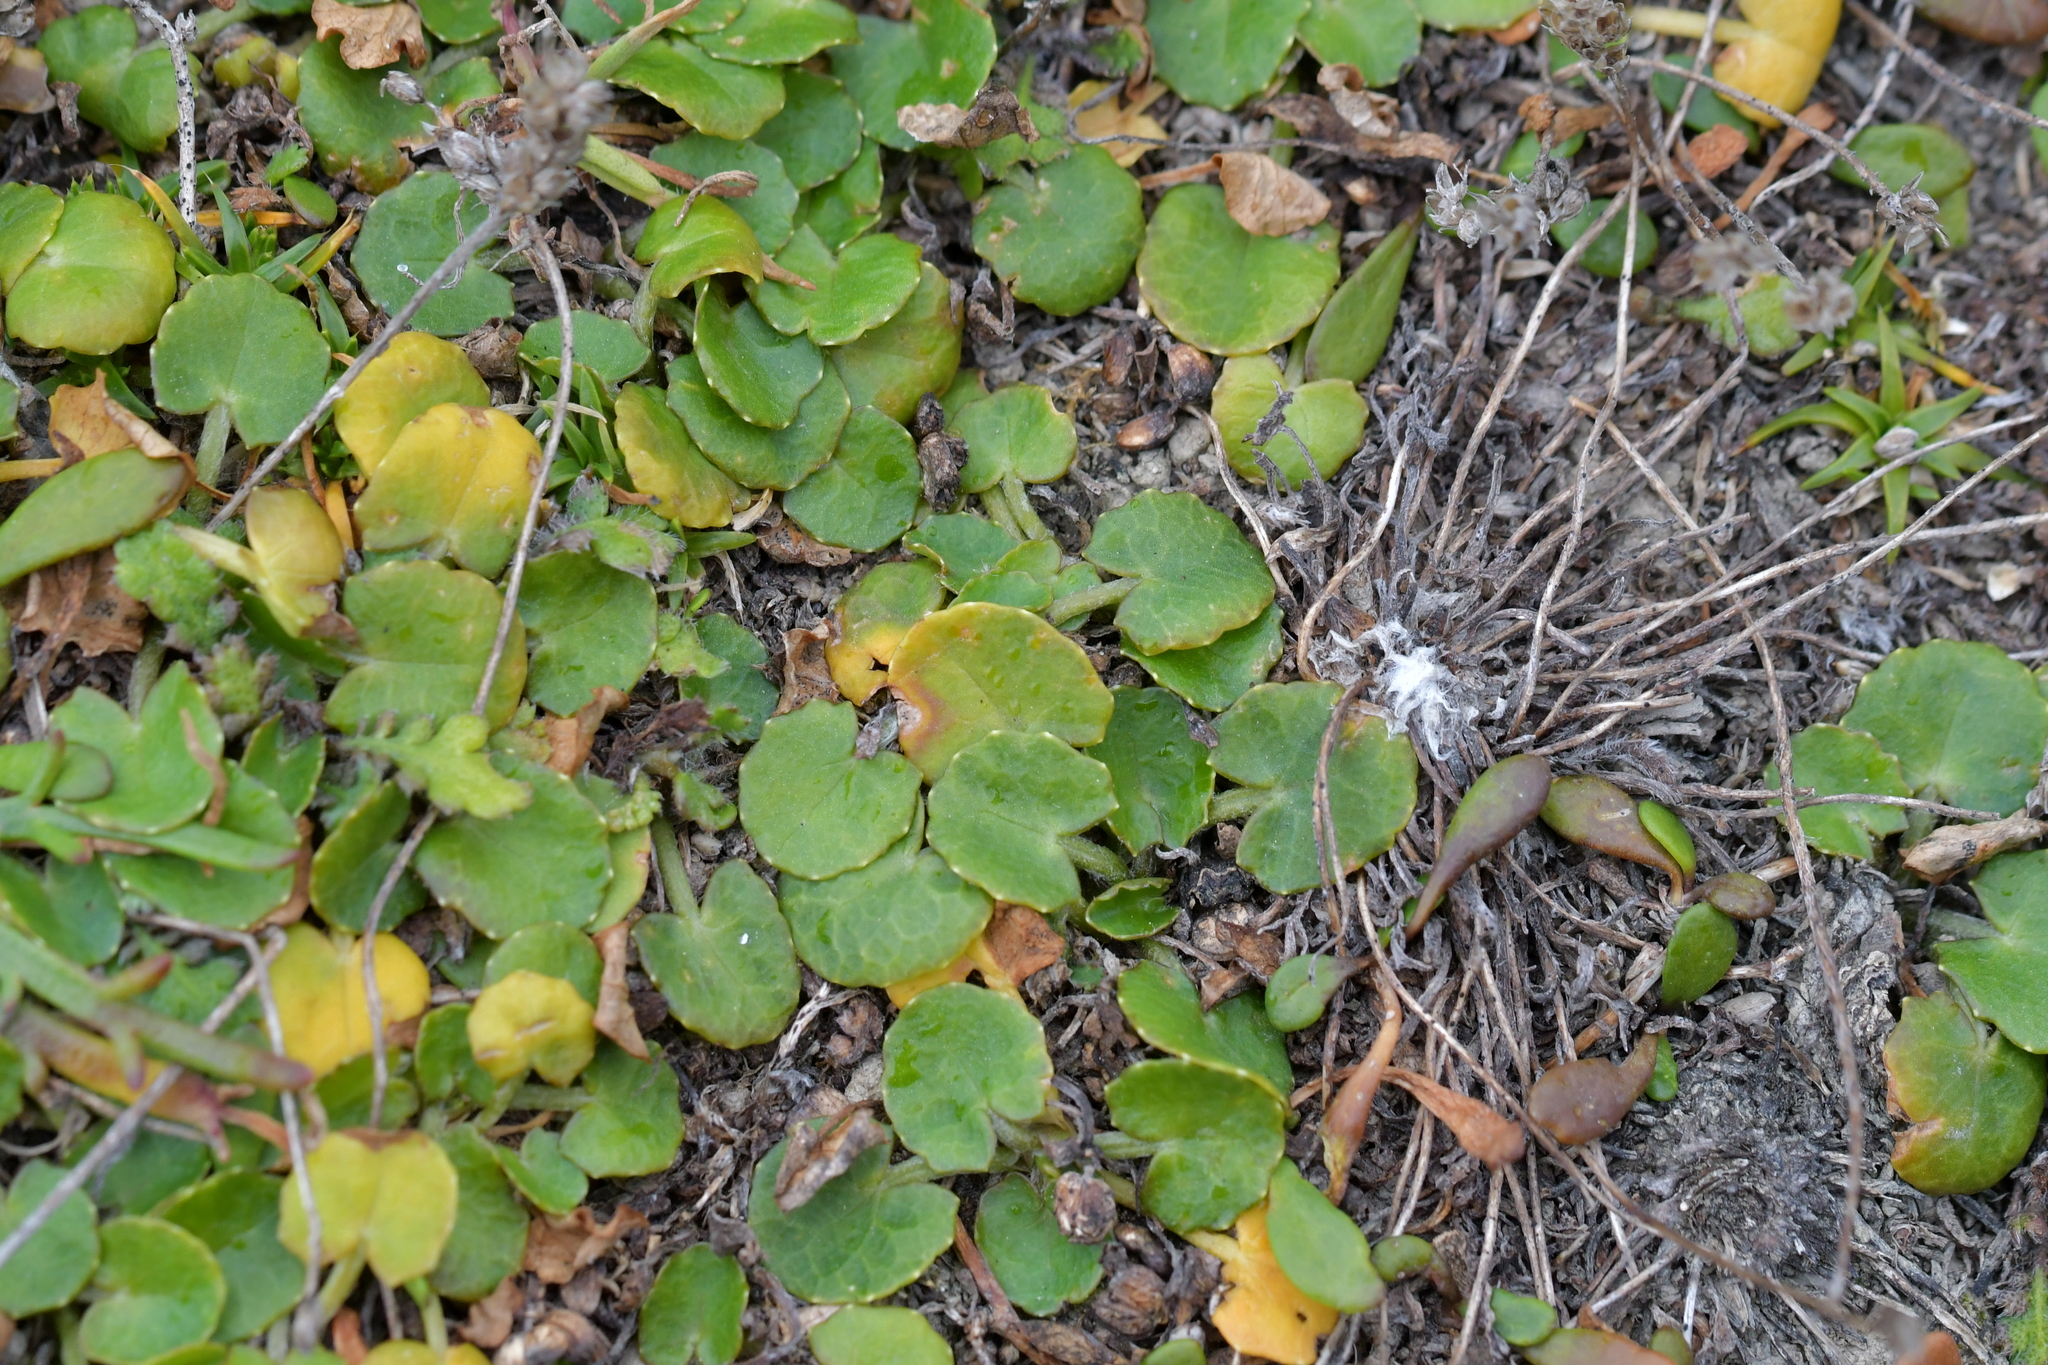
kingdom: Plantae
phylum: Tracheophyta
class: Magnoliopsida
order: Caryophyllales
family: Caryophyllaceae
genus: Colobanthus
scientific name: Colobanthus muelleri
